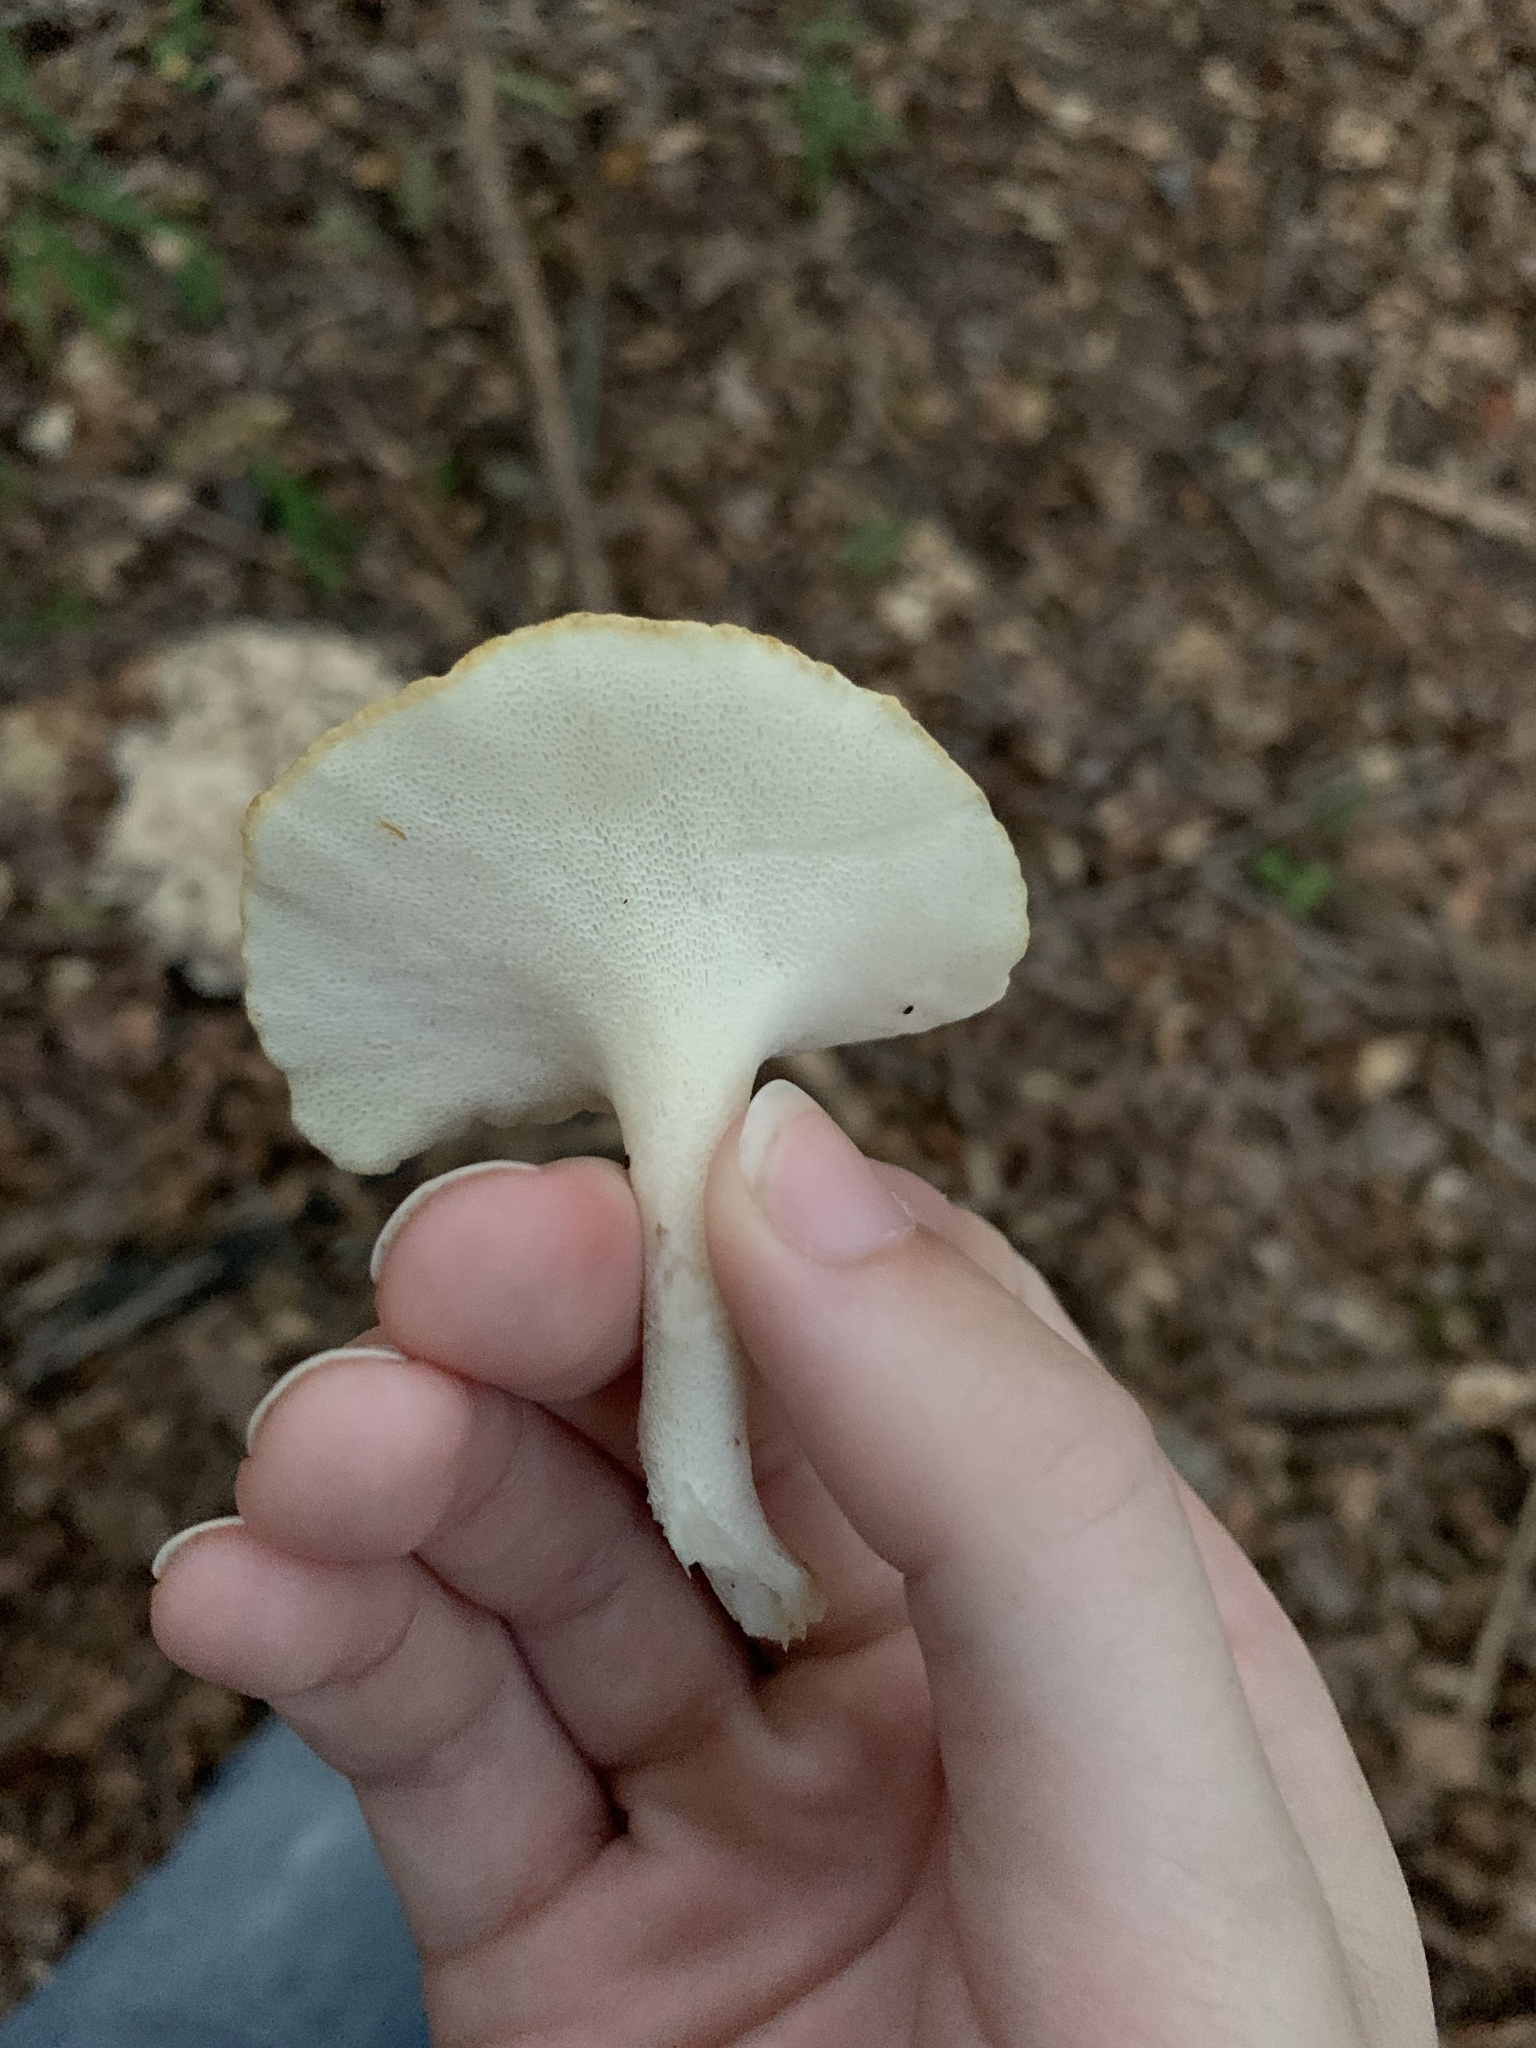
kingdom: Fungi
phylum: Basidiomycota
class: Agaricomycetes
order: Polyporales
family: Polyporaceae
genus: Polyporus
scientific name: Polyporus umbellatus
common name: Umbrella polypore
